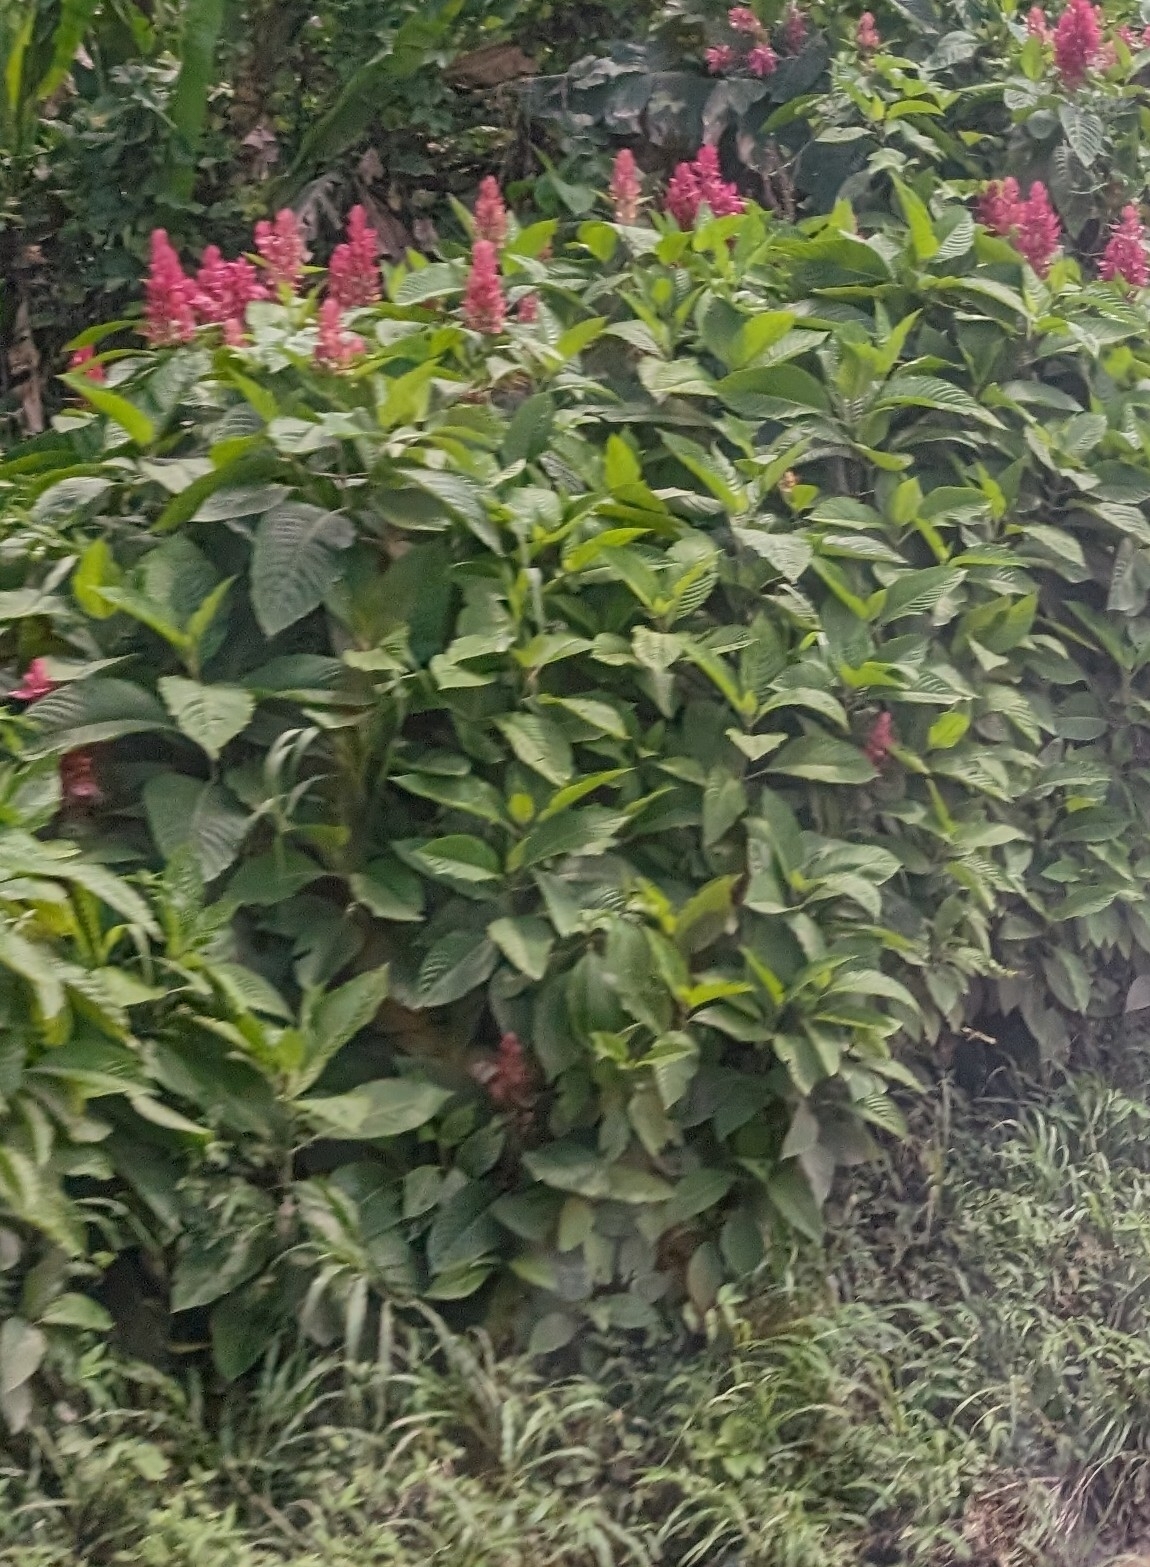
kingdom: Plantae
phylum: Tracheophyta
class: Magnoliopsida
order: Lamiales
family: Acanthaceae
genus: Megaskepasma
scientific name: Megaskepasma erythrochlamys
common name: Brazilian red-cloak
